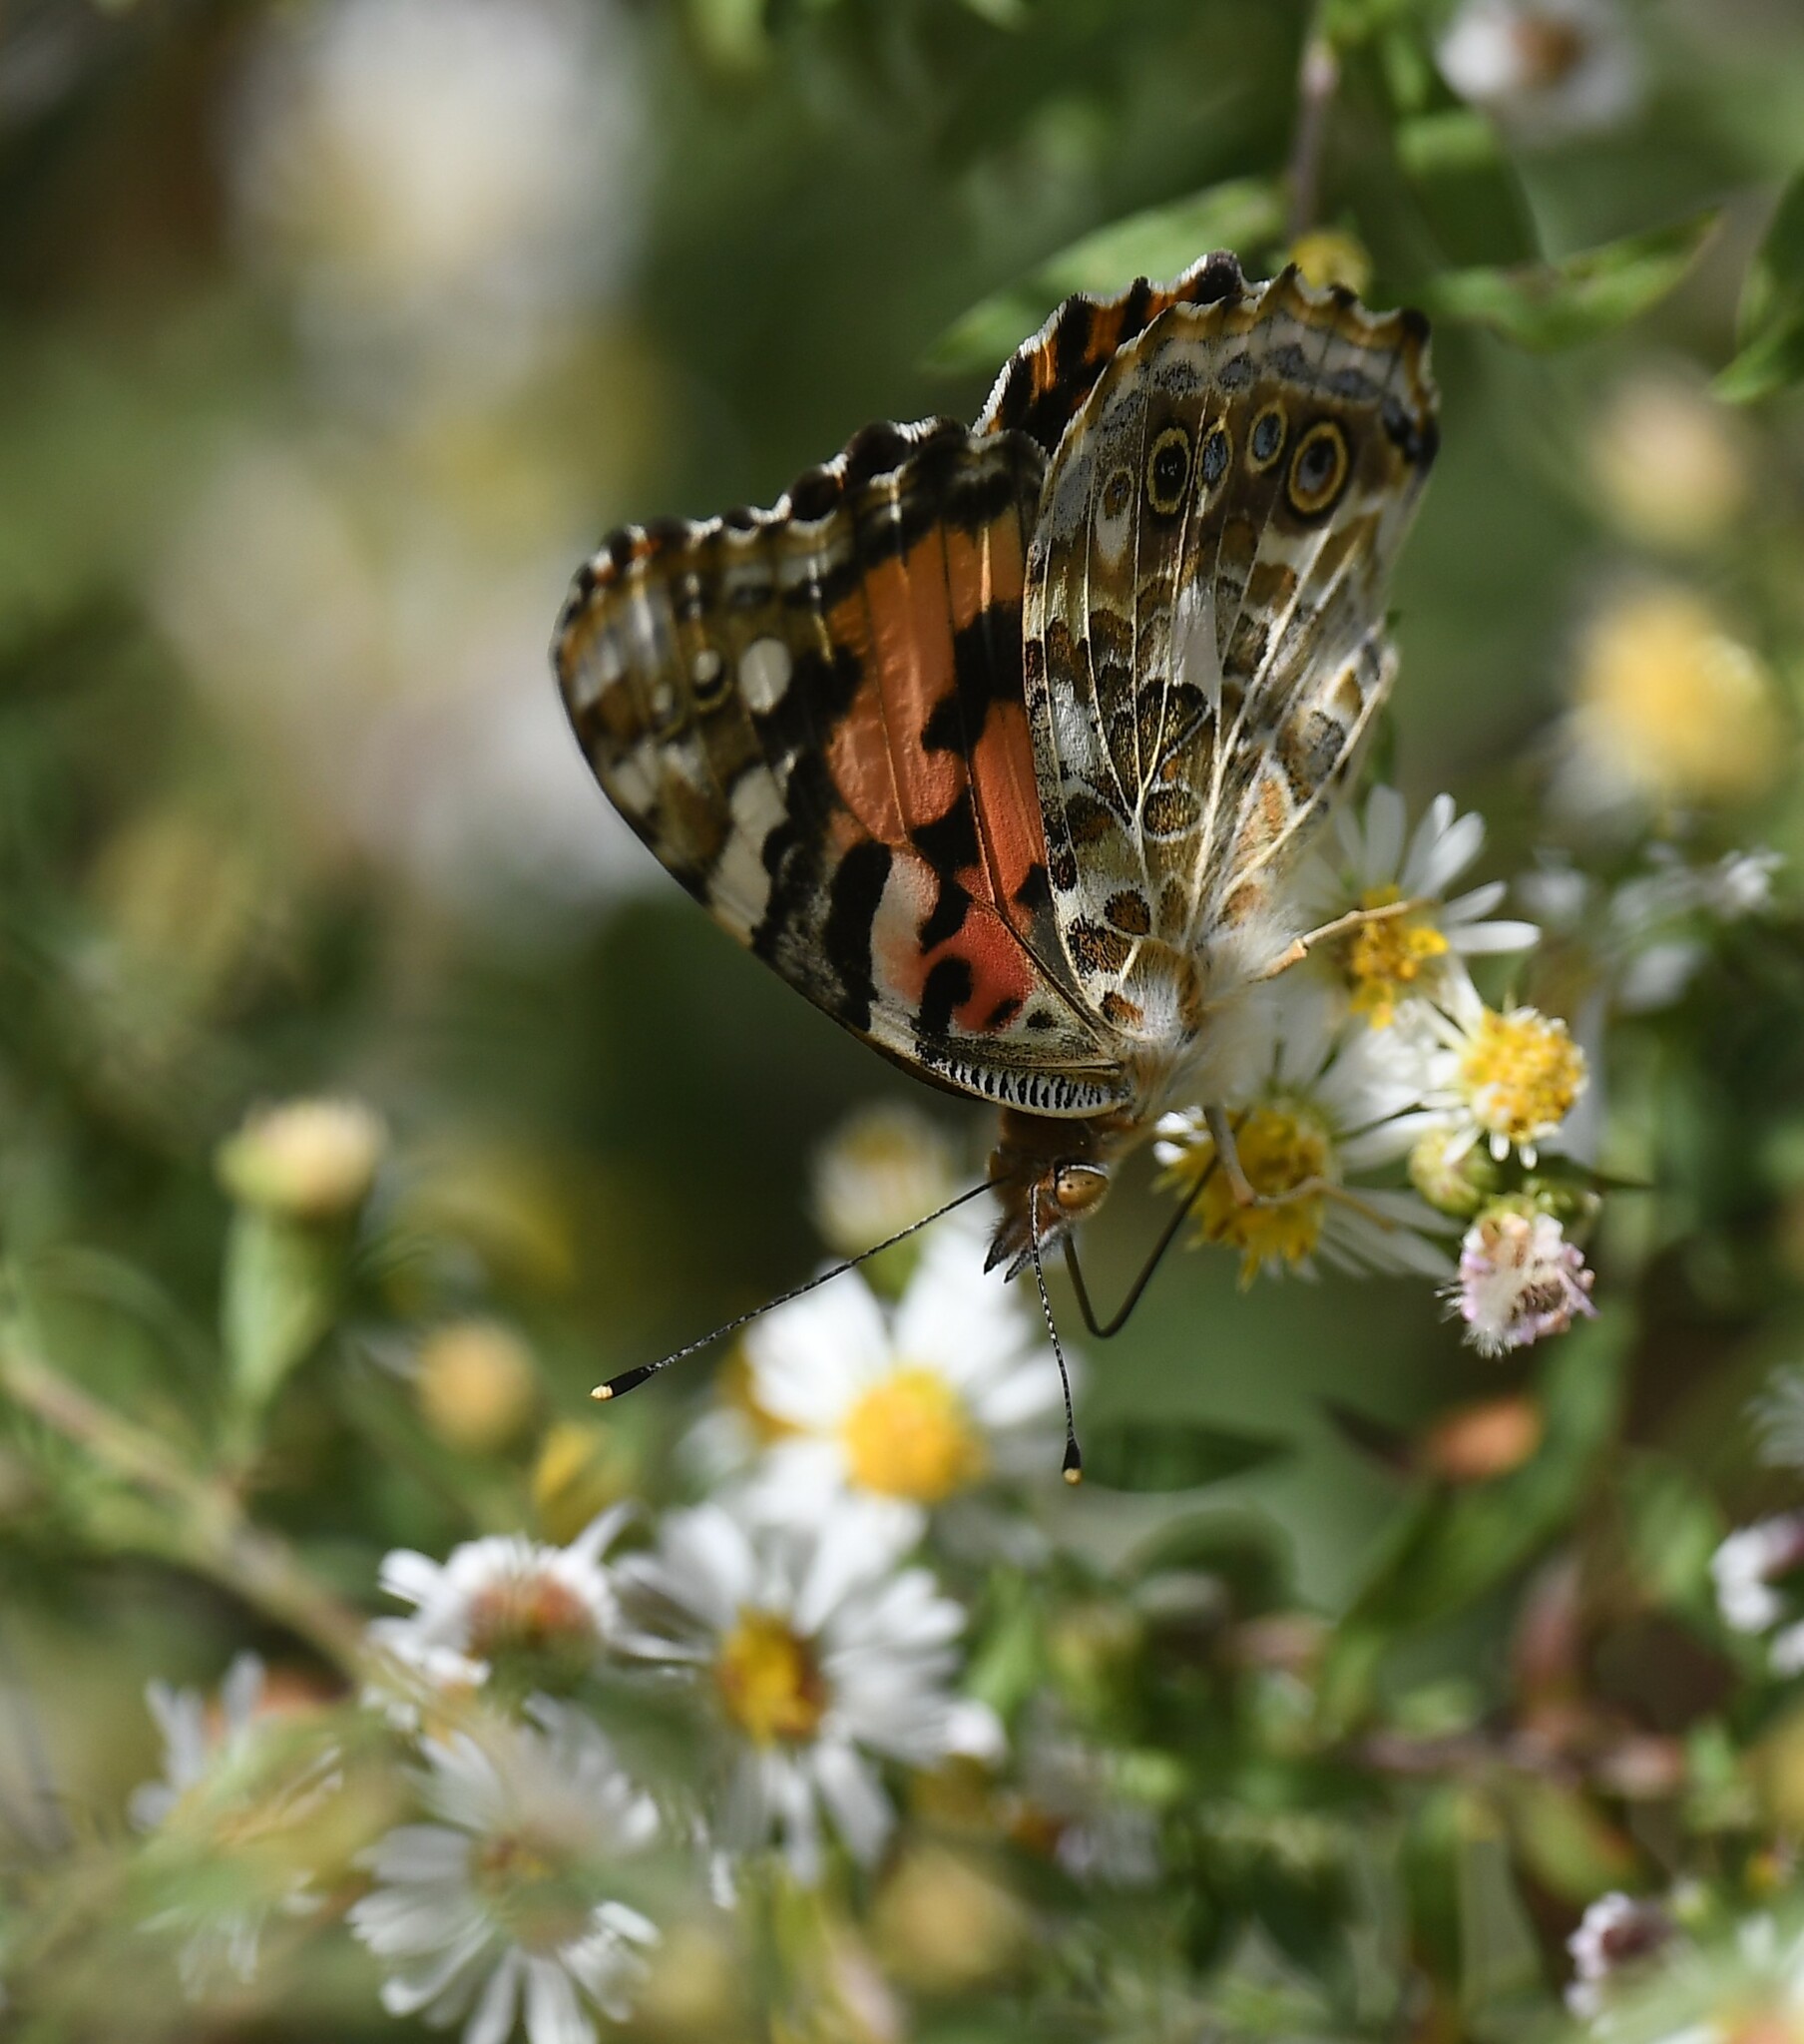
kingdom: Animalia
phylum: Arthropoda
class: Insecta
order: Lepidoptera
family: Nymphalidae
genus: Vanessa
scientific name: Vanessa cardui
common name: Painted lady
